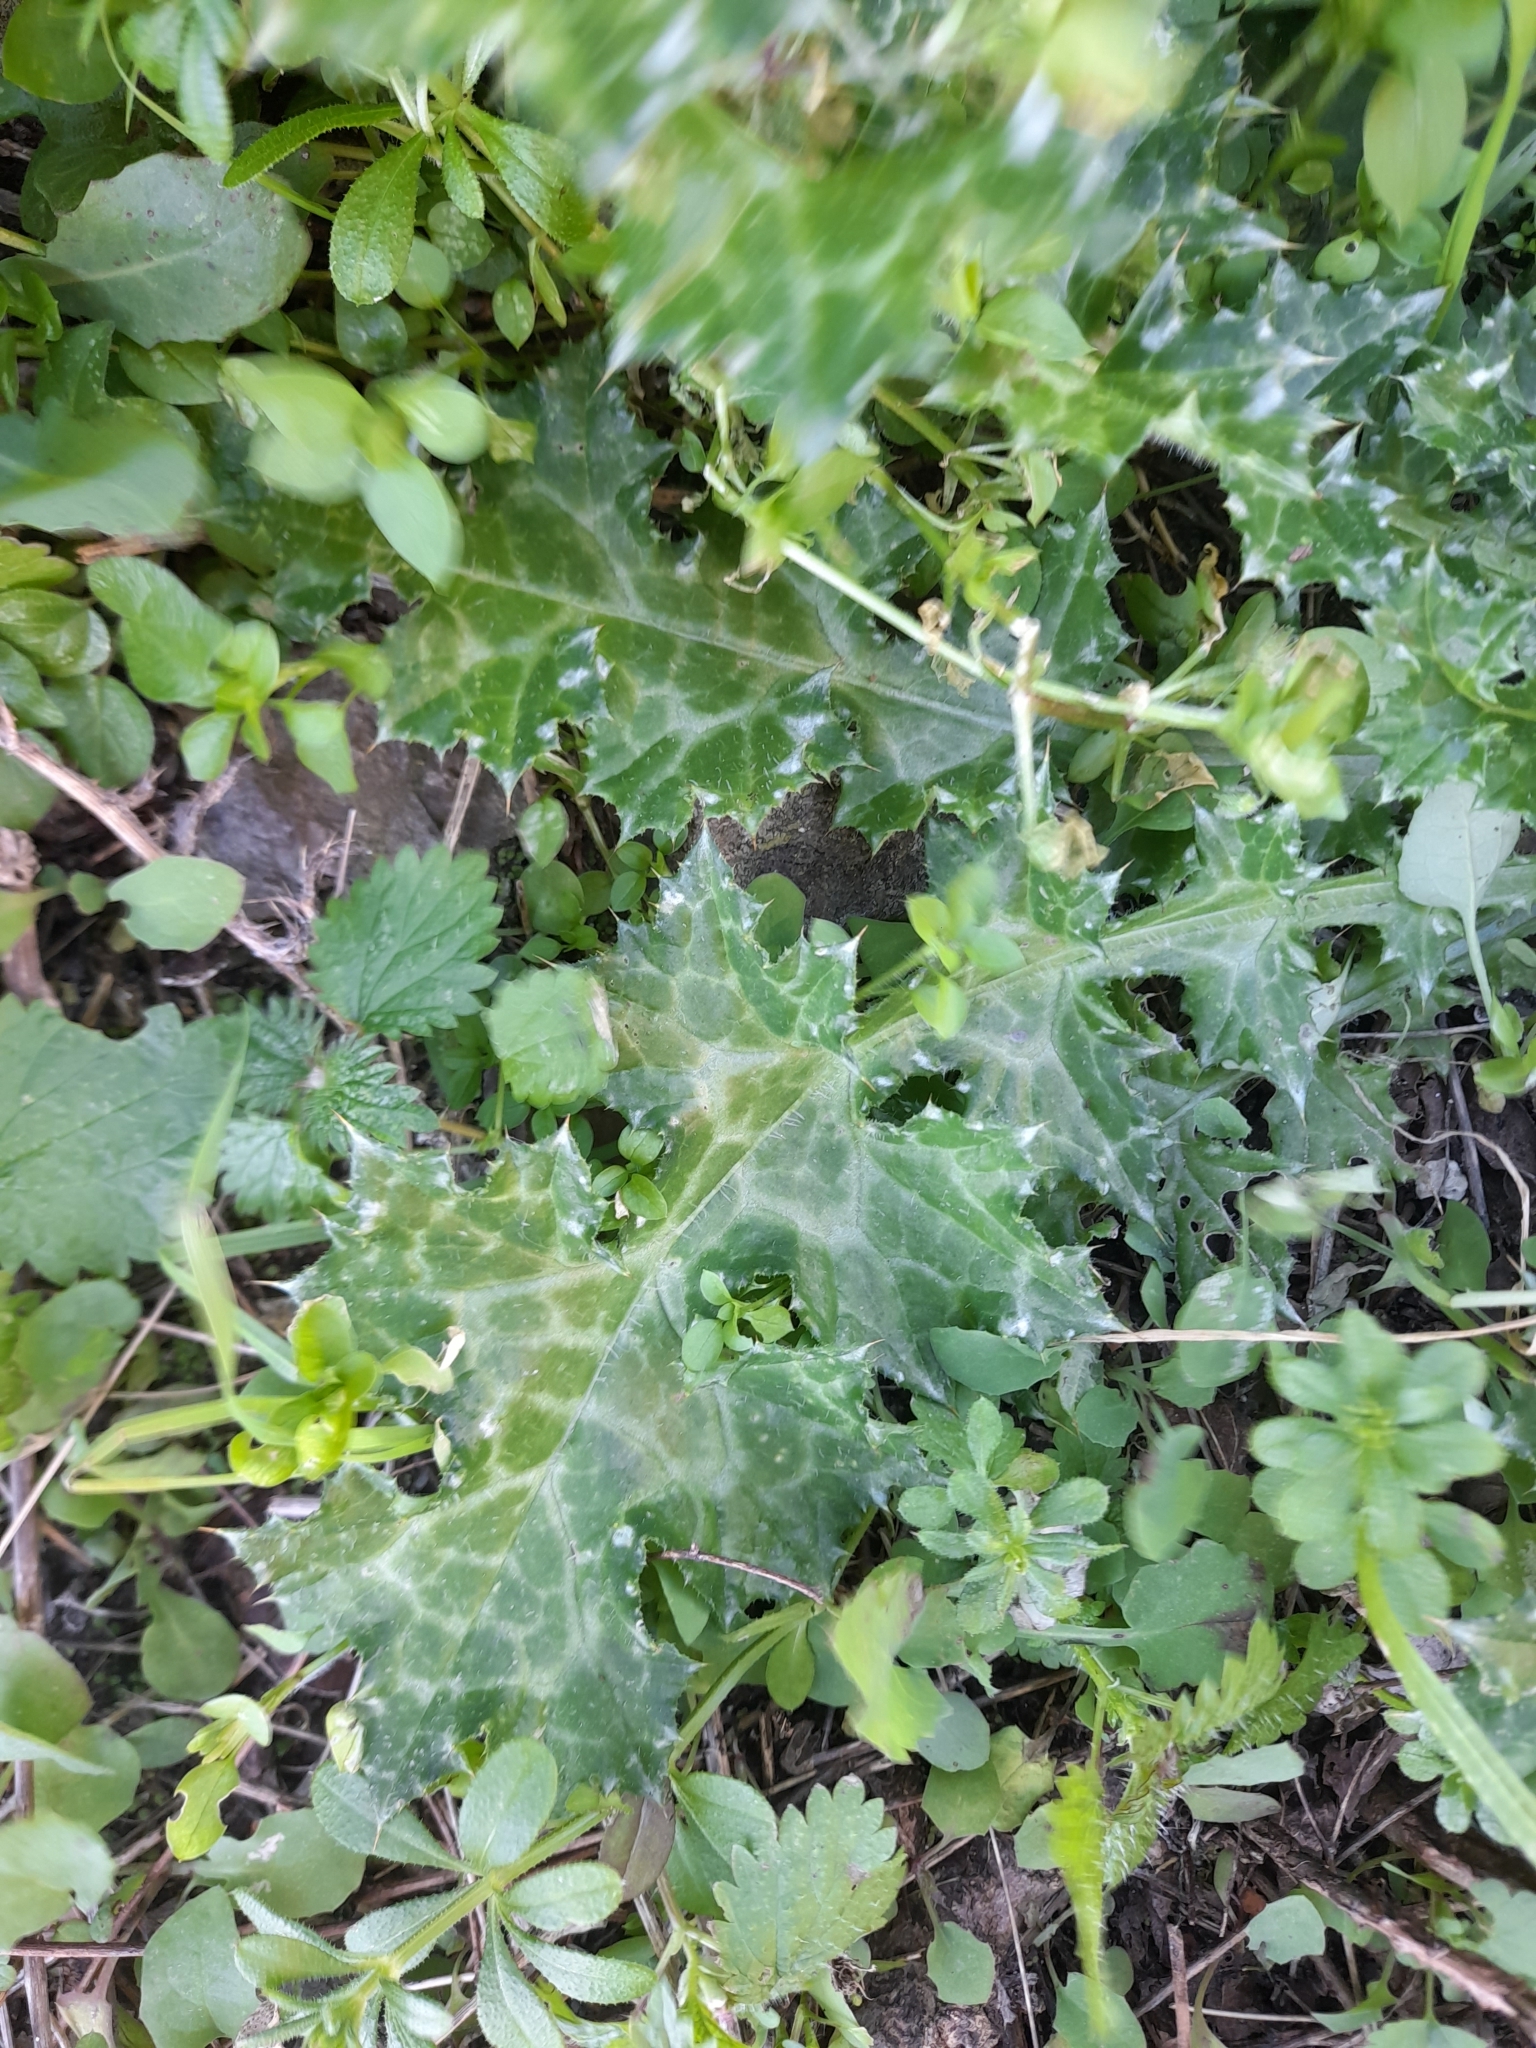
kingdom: Plantae
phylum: Tracheophyta
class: Magnoliopsida
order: Asterales
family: Asteraceae
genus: Carduus
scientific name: Carduus pycnocephalus
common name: Plymouth thistle
